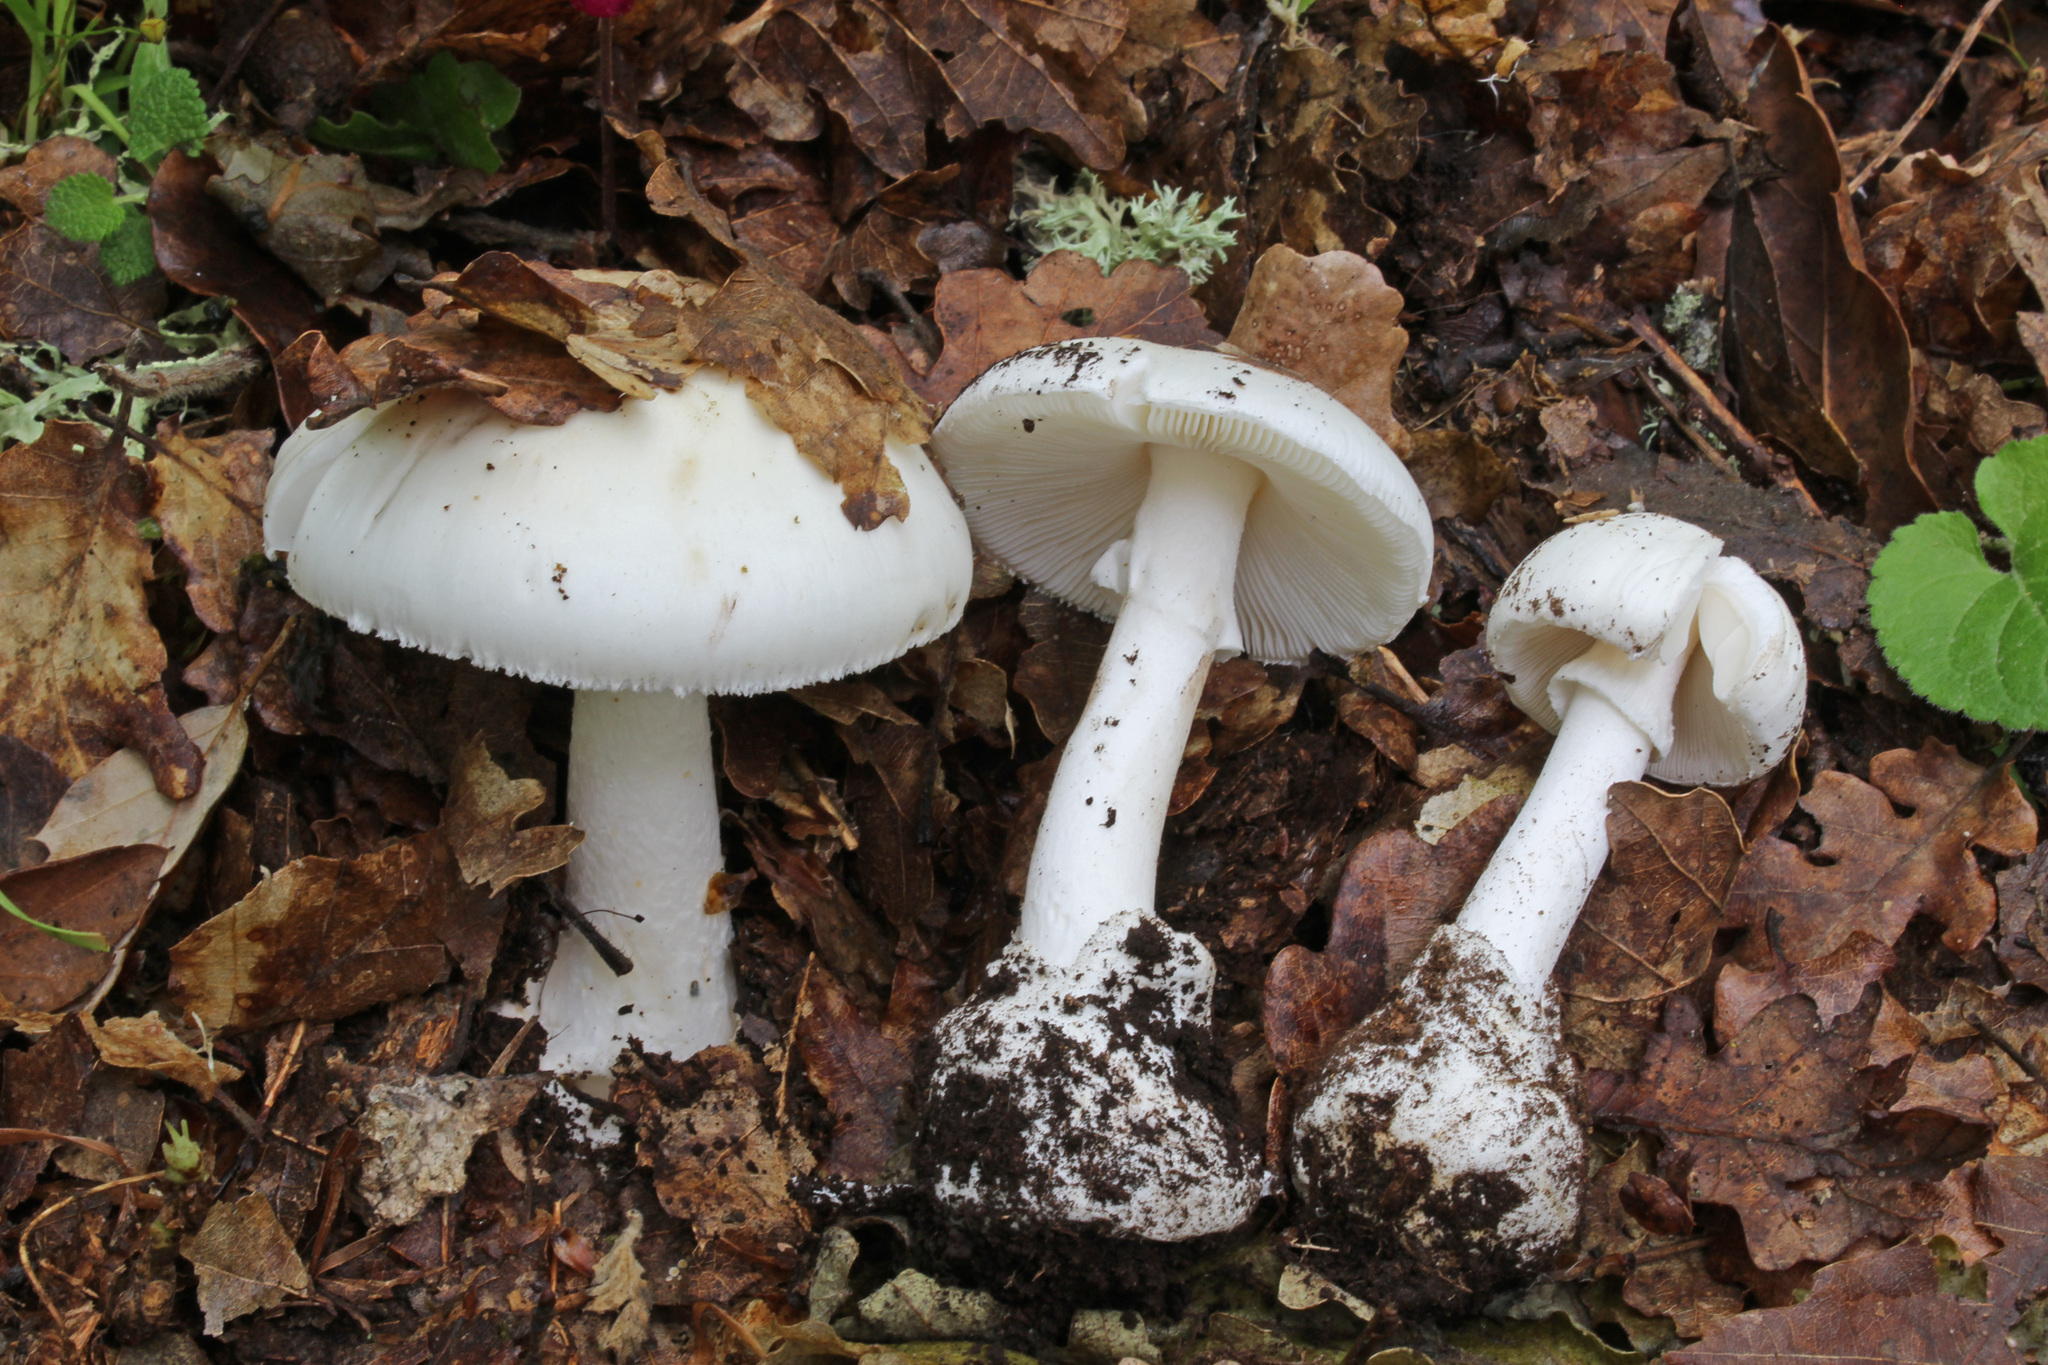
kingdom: Fungi
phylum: Basidiomycota
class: Agaricomycetes
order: Agaricales
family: Amanitaceae
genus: Amanita
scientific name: Amanita verna
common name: Fool's mushroom
